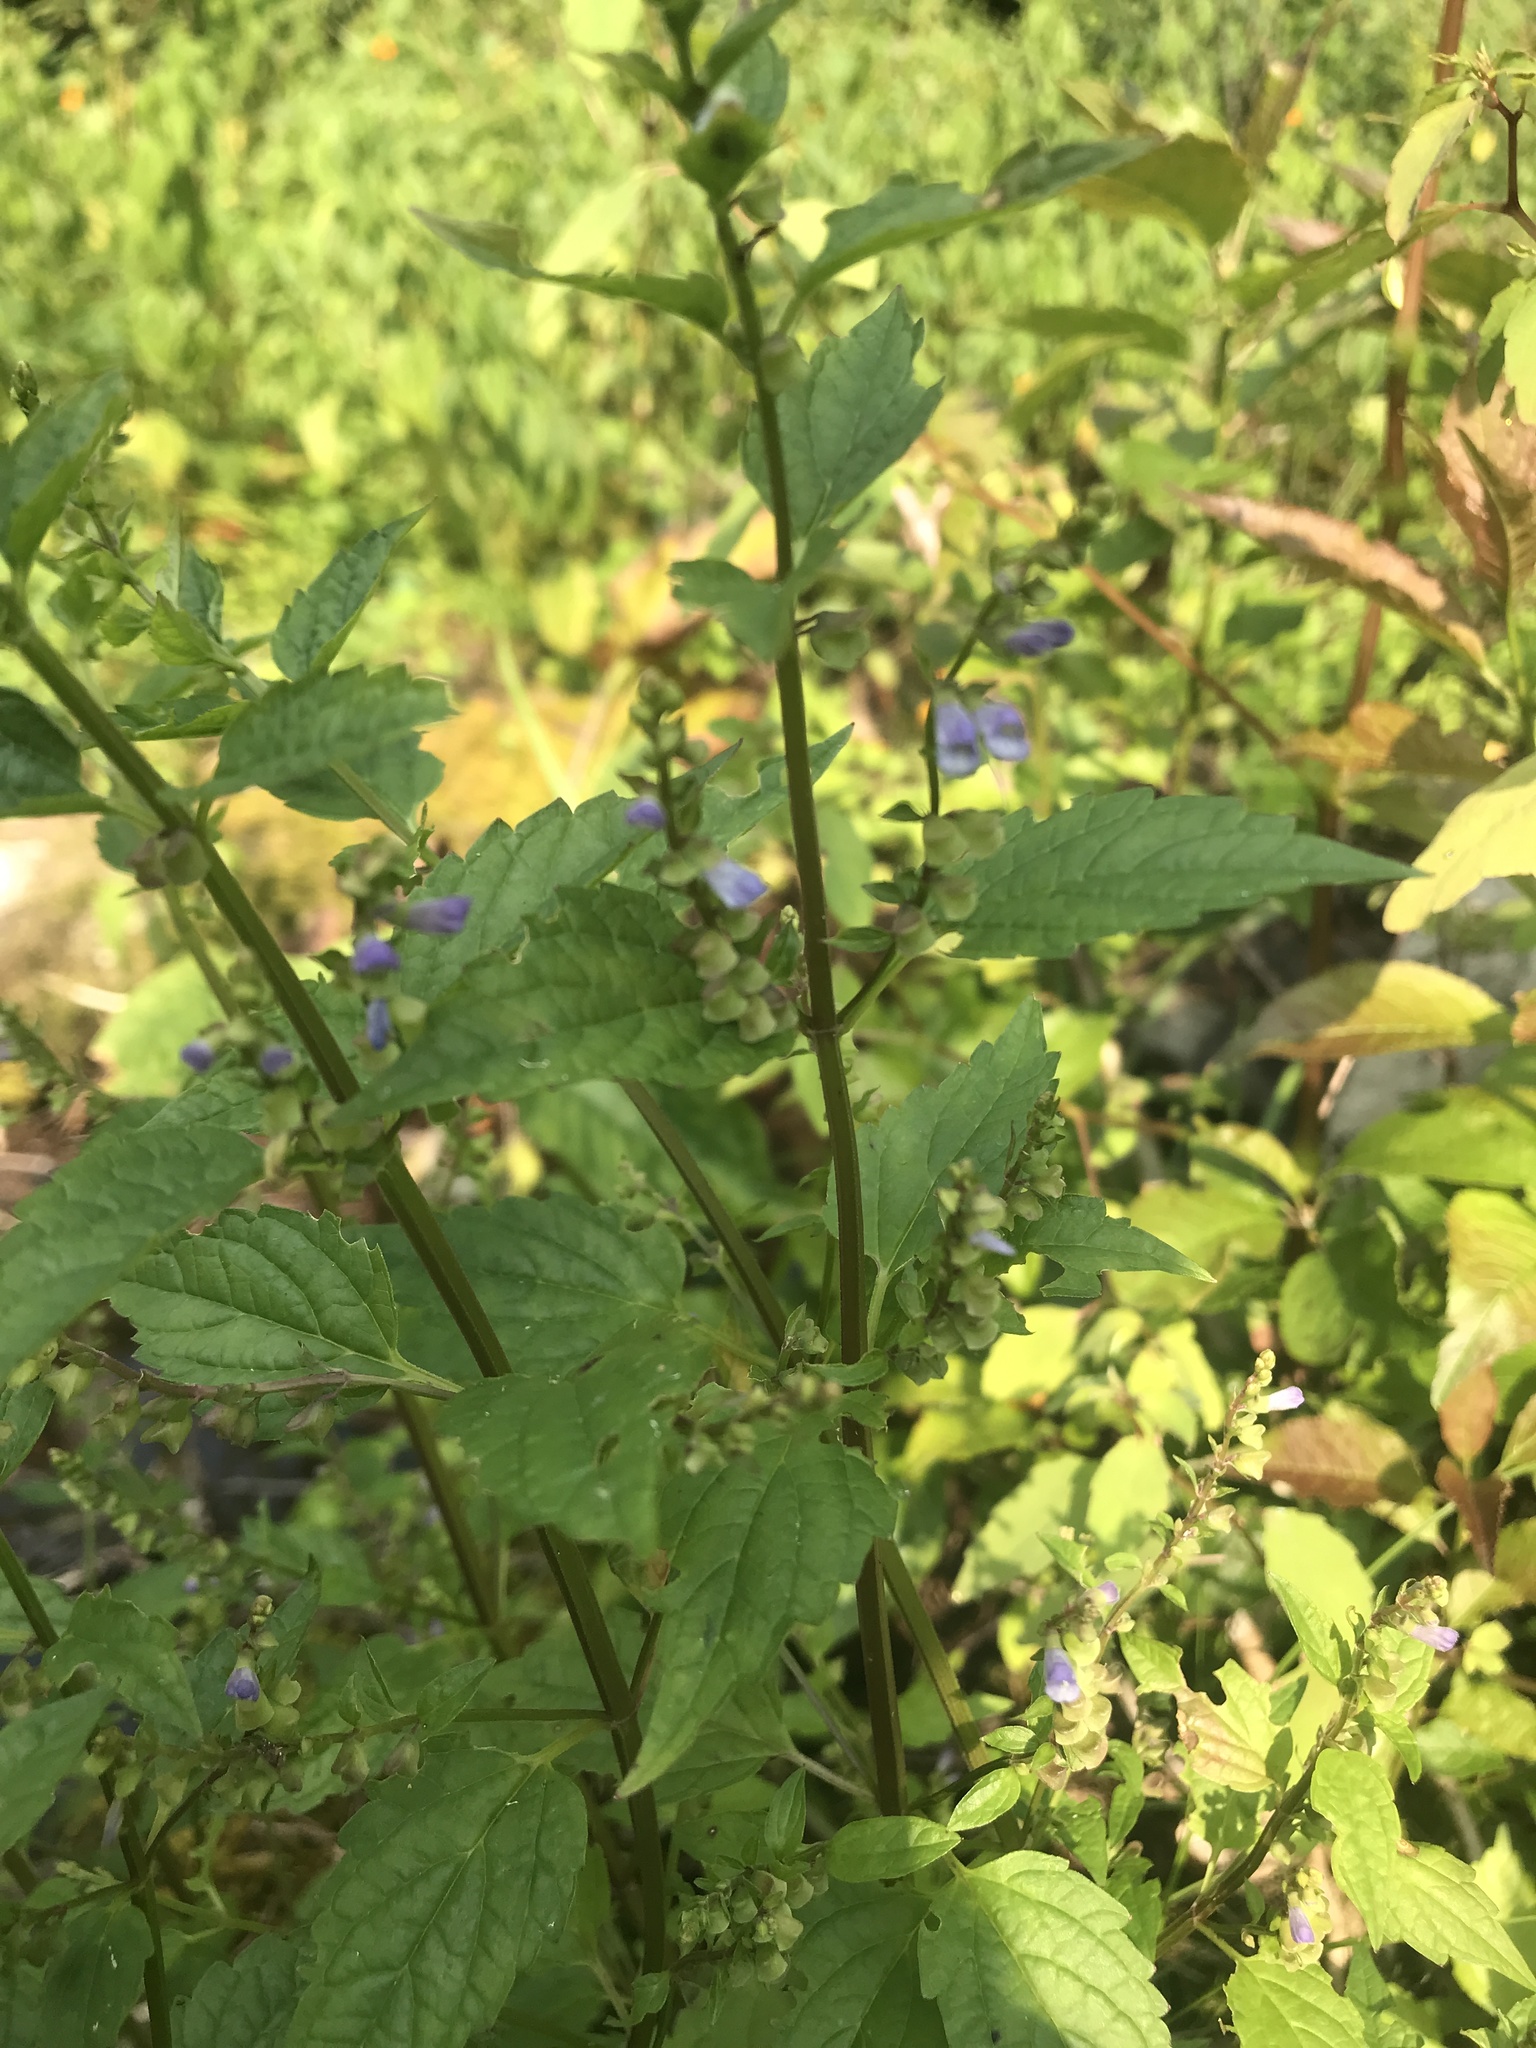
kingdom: Plantae
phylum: Tracheophyta
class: Magnoliopsida
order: Lamiales
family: Lamiaceae
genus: Scutellaria
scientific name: Scutellaria lateriflora
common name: Blue skullcap
